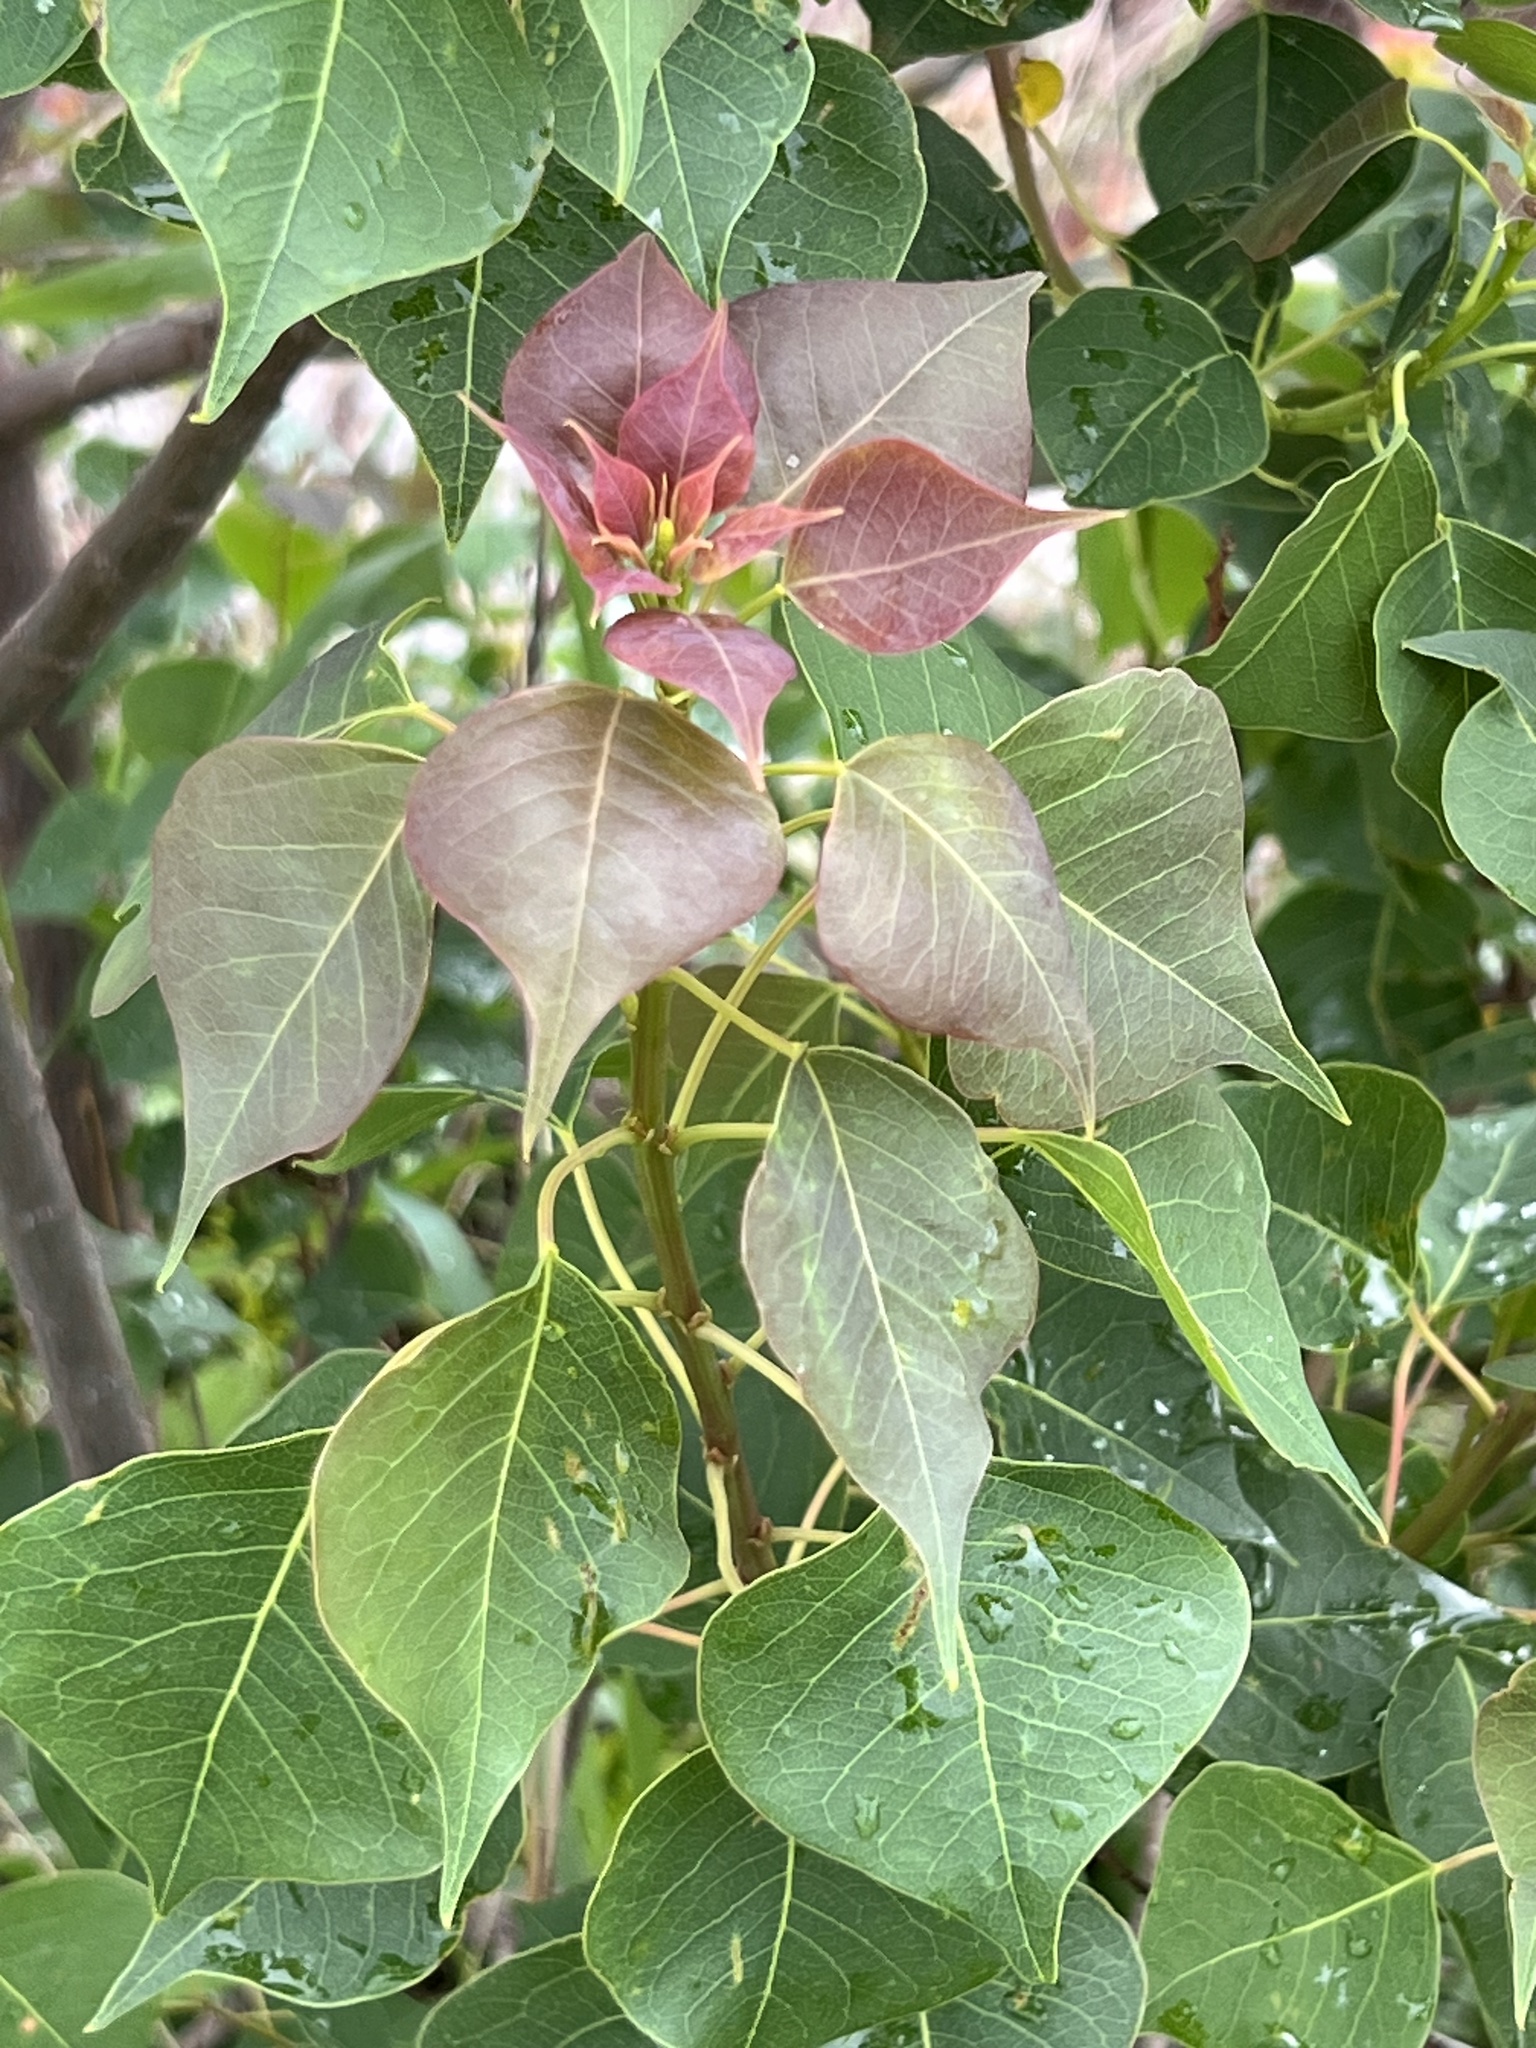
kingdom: Plantae
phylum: Tracheophyta
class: Magnoliopsida
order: Malpighiales
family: Euphorbiaceae
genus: Triadica
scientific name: Triadica sebifera
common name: Chinese tallow
